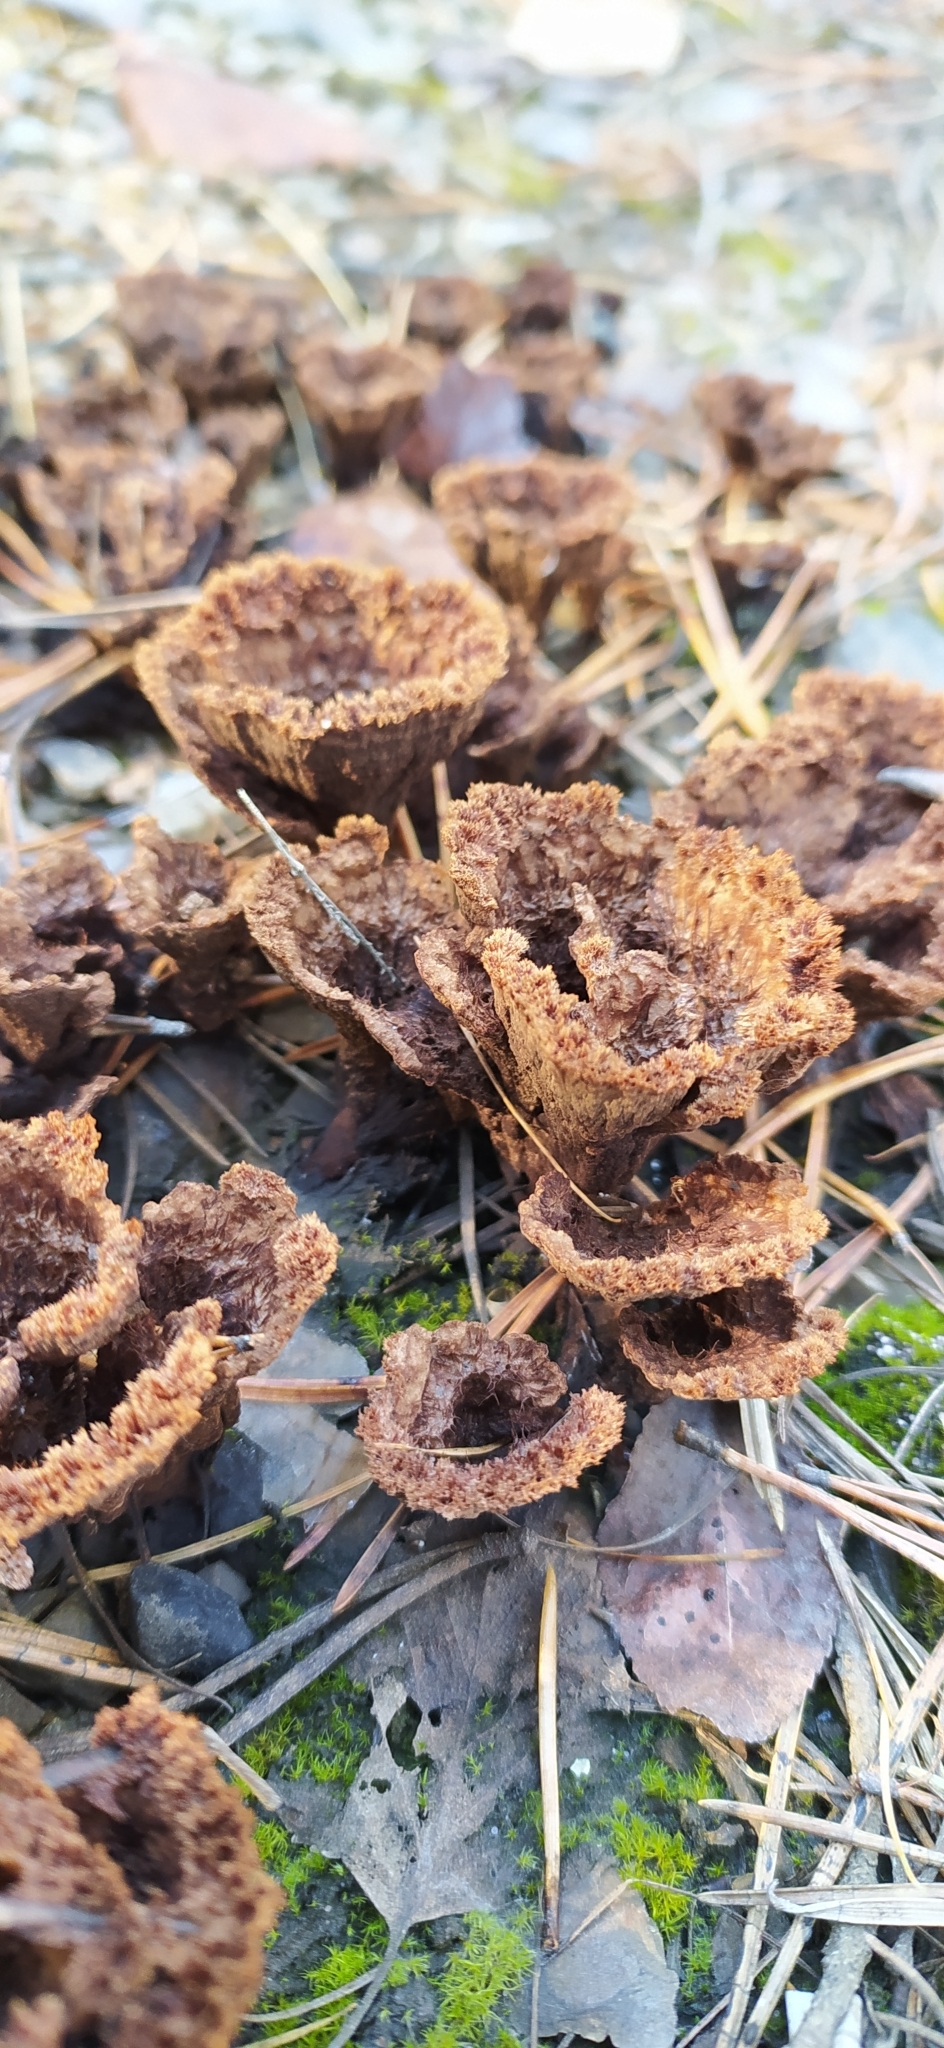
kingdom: Fungi
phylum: Basidiomycota
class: Agaricomycetes
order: Thelephorales
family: Thelephoraceae
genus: Thelephora
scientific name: Thelephora terrestris
